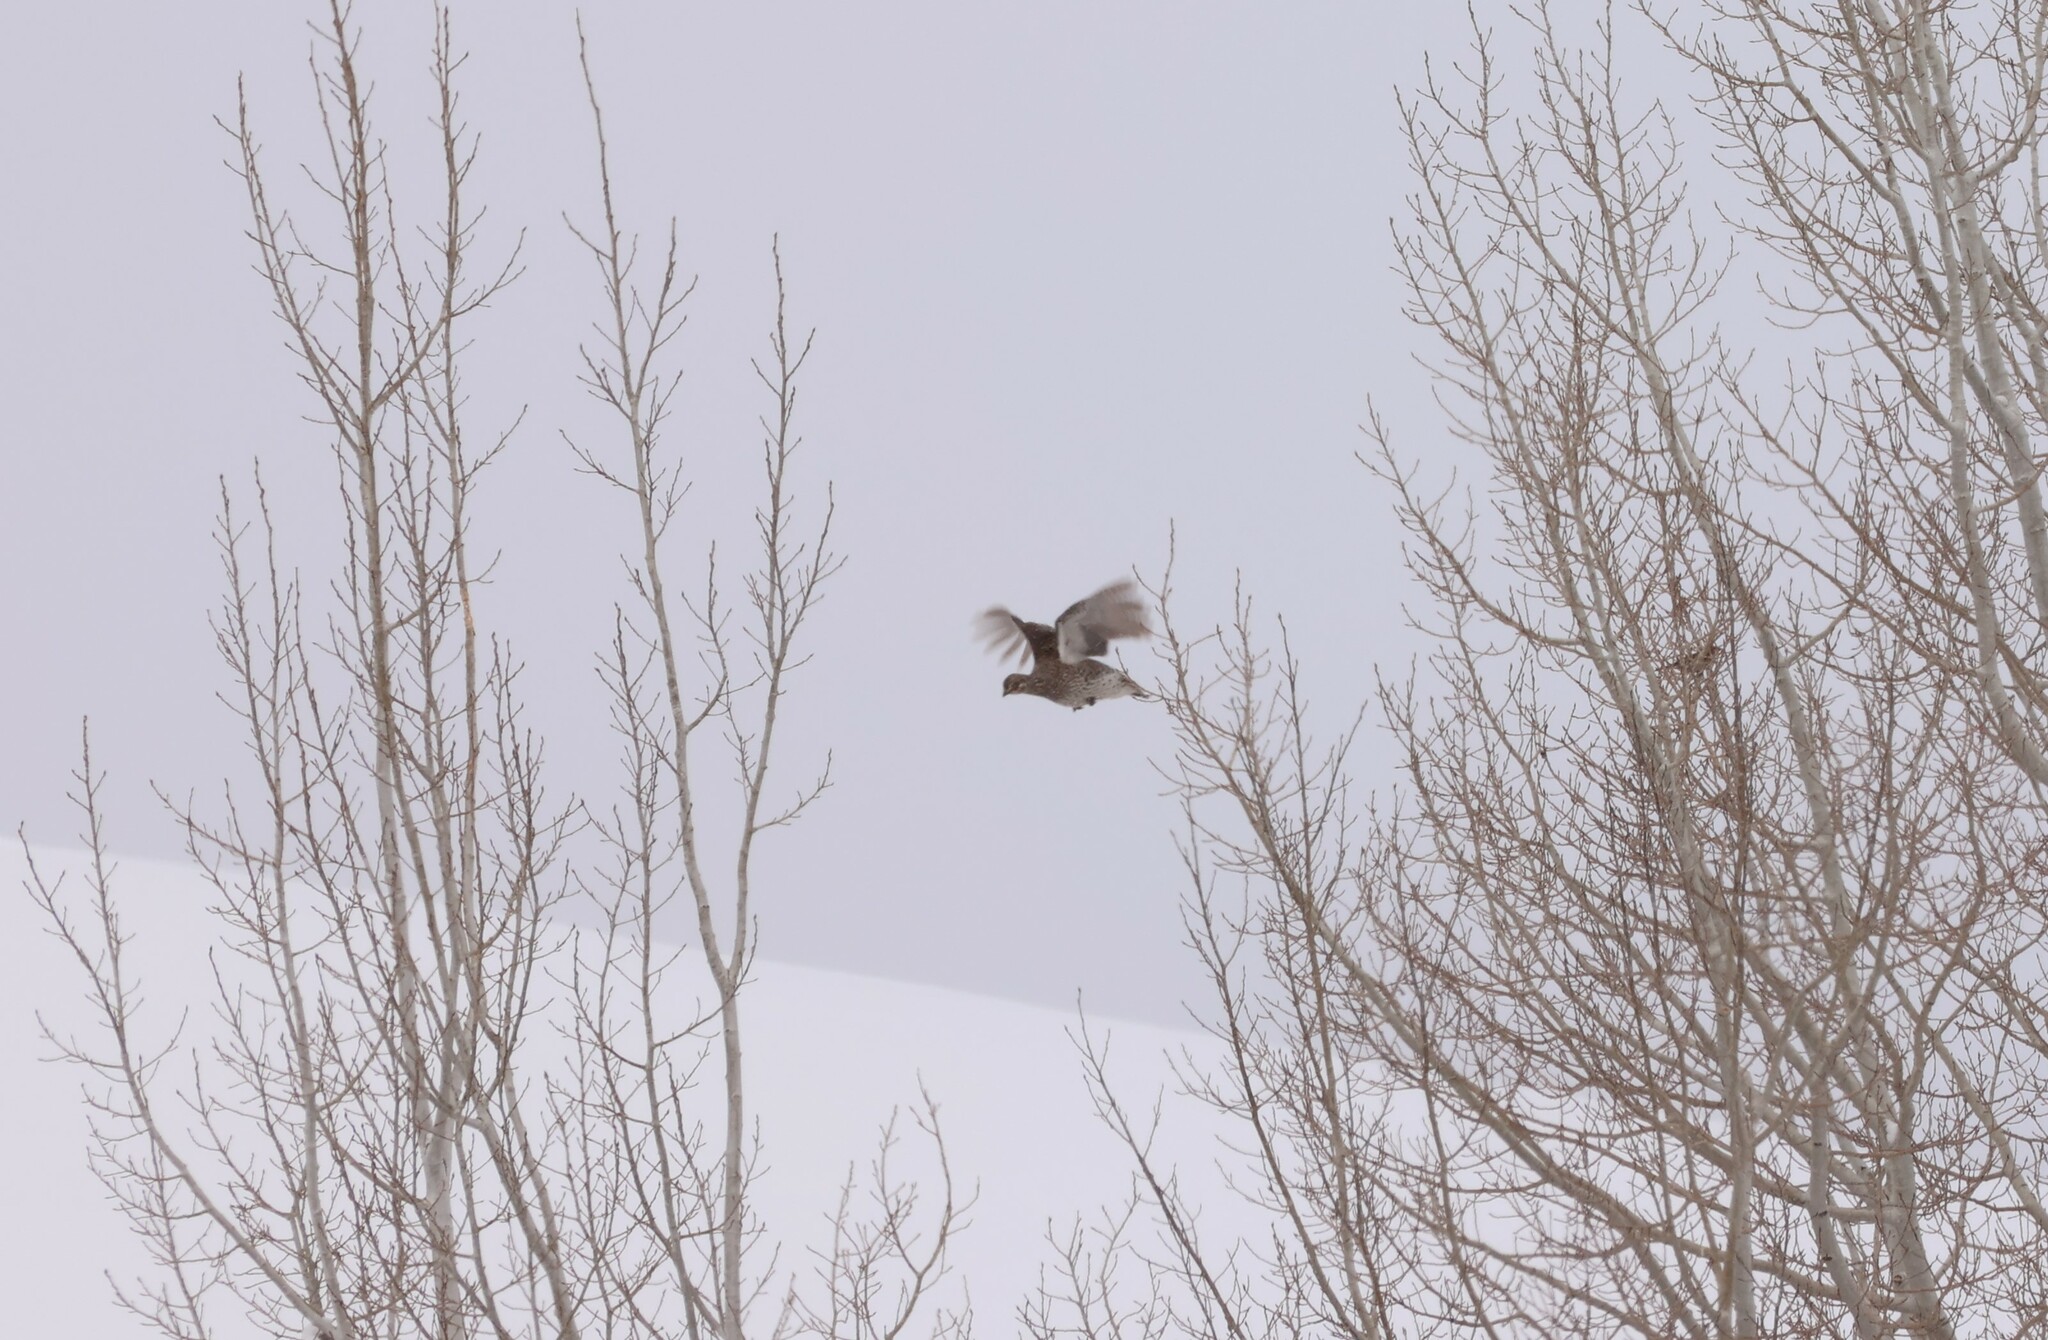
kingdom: Animalia
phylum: Chordata
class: Aves
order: Galliformes
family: Phasianidae
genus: Tympanuchus
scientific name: Tympanuchus phasianellus
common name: Sharp-tailed grouse
